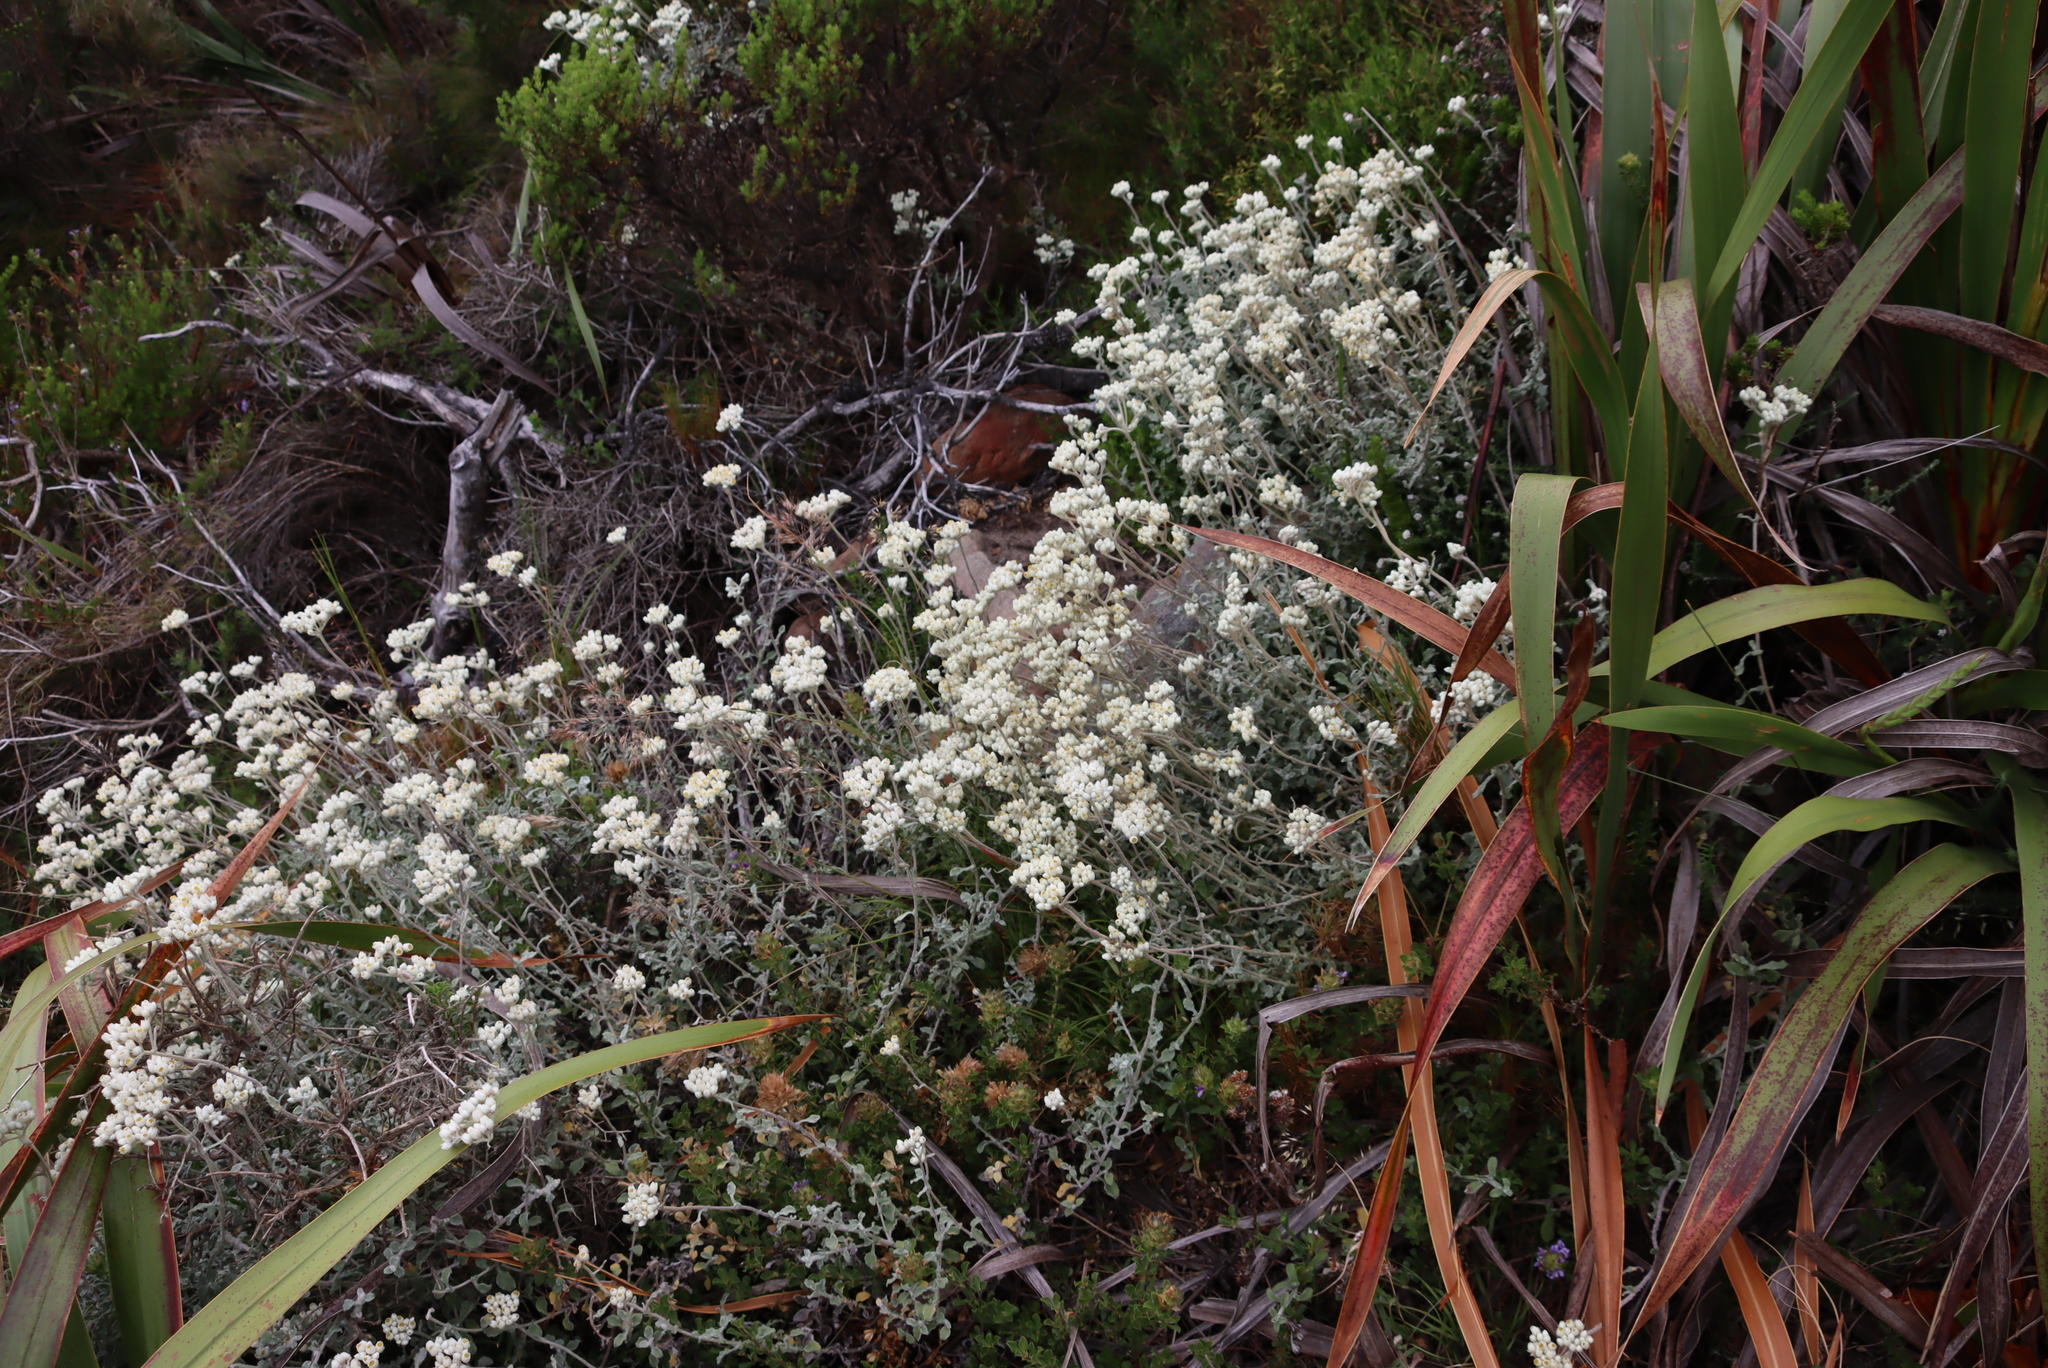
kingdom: Plantae
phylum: Tracheophyta
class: Magnoliopsida
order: Asterales
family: Asteraceae
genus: Helichrysum
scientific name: Helichrysum pandurifolium
